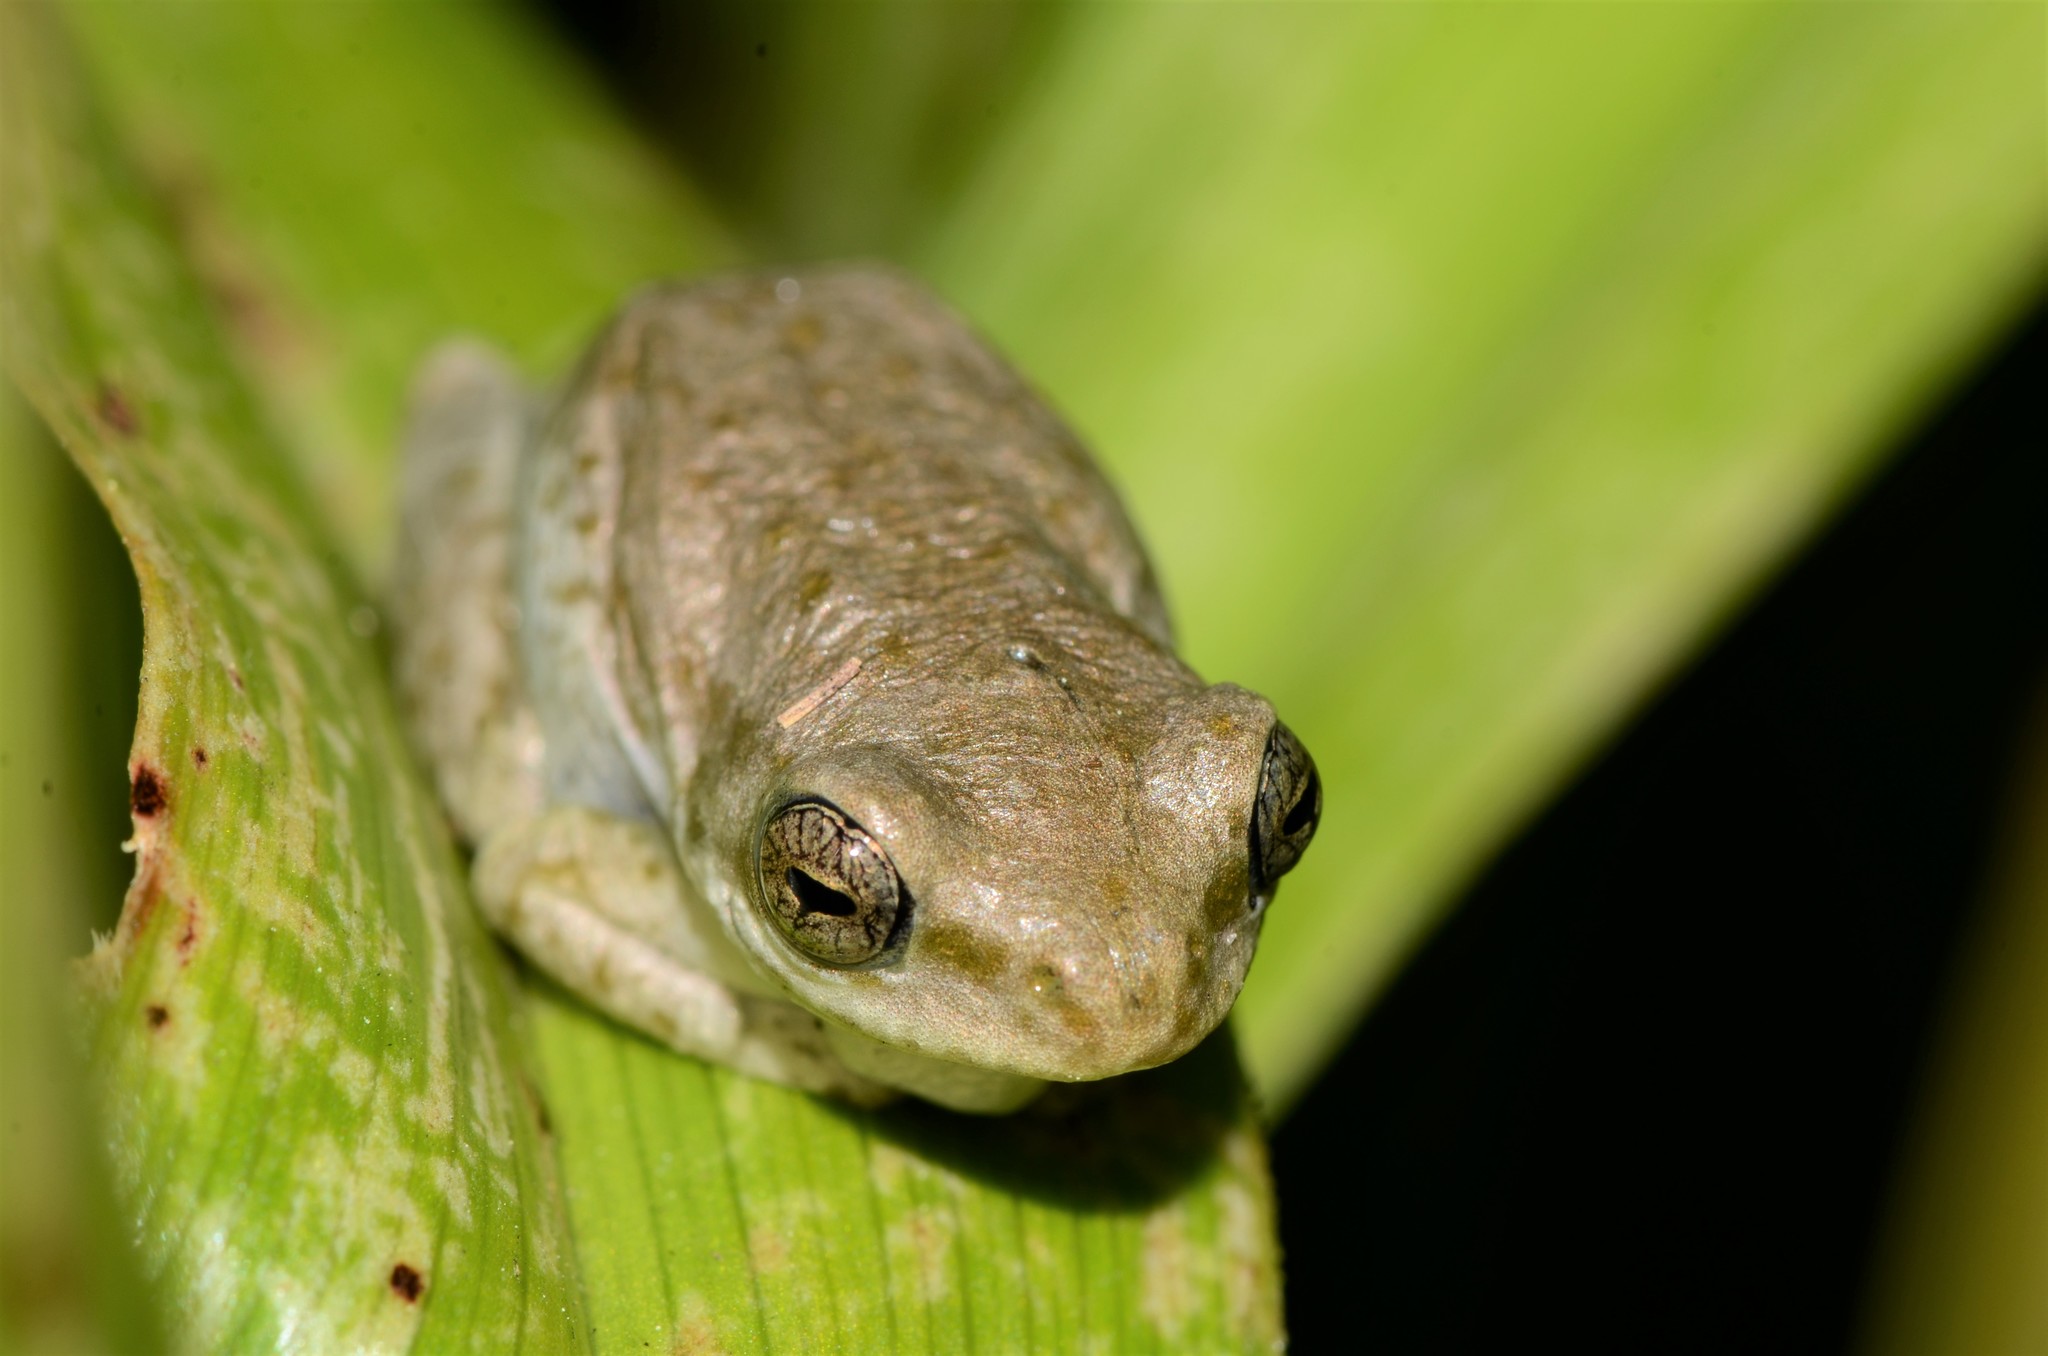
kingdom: Animalia
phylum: Chordata
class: Amphibia
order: Anura
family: Hyperoliidae
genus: Hyperolius
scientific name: Hyperolius marmoratus
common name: Painted reed frog
